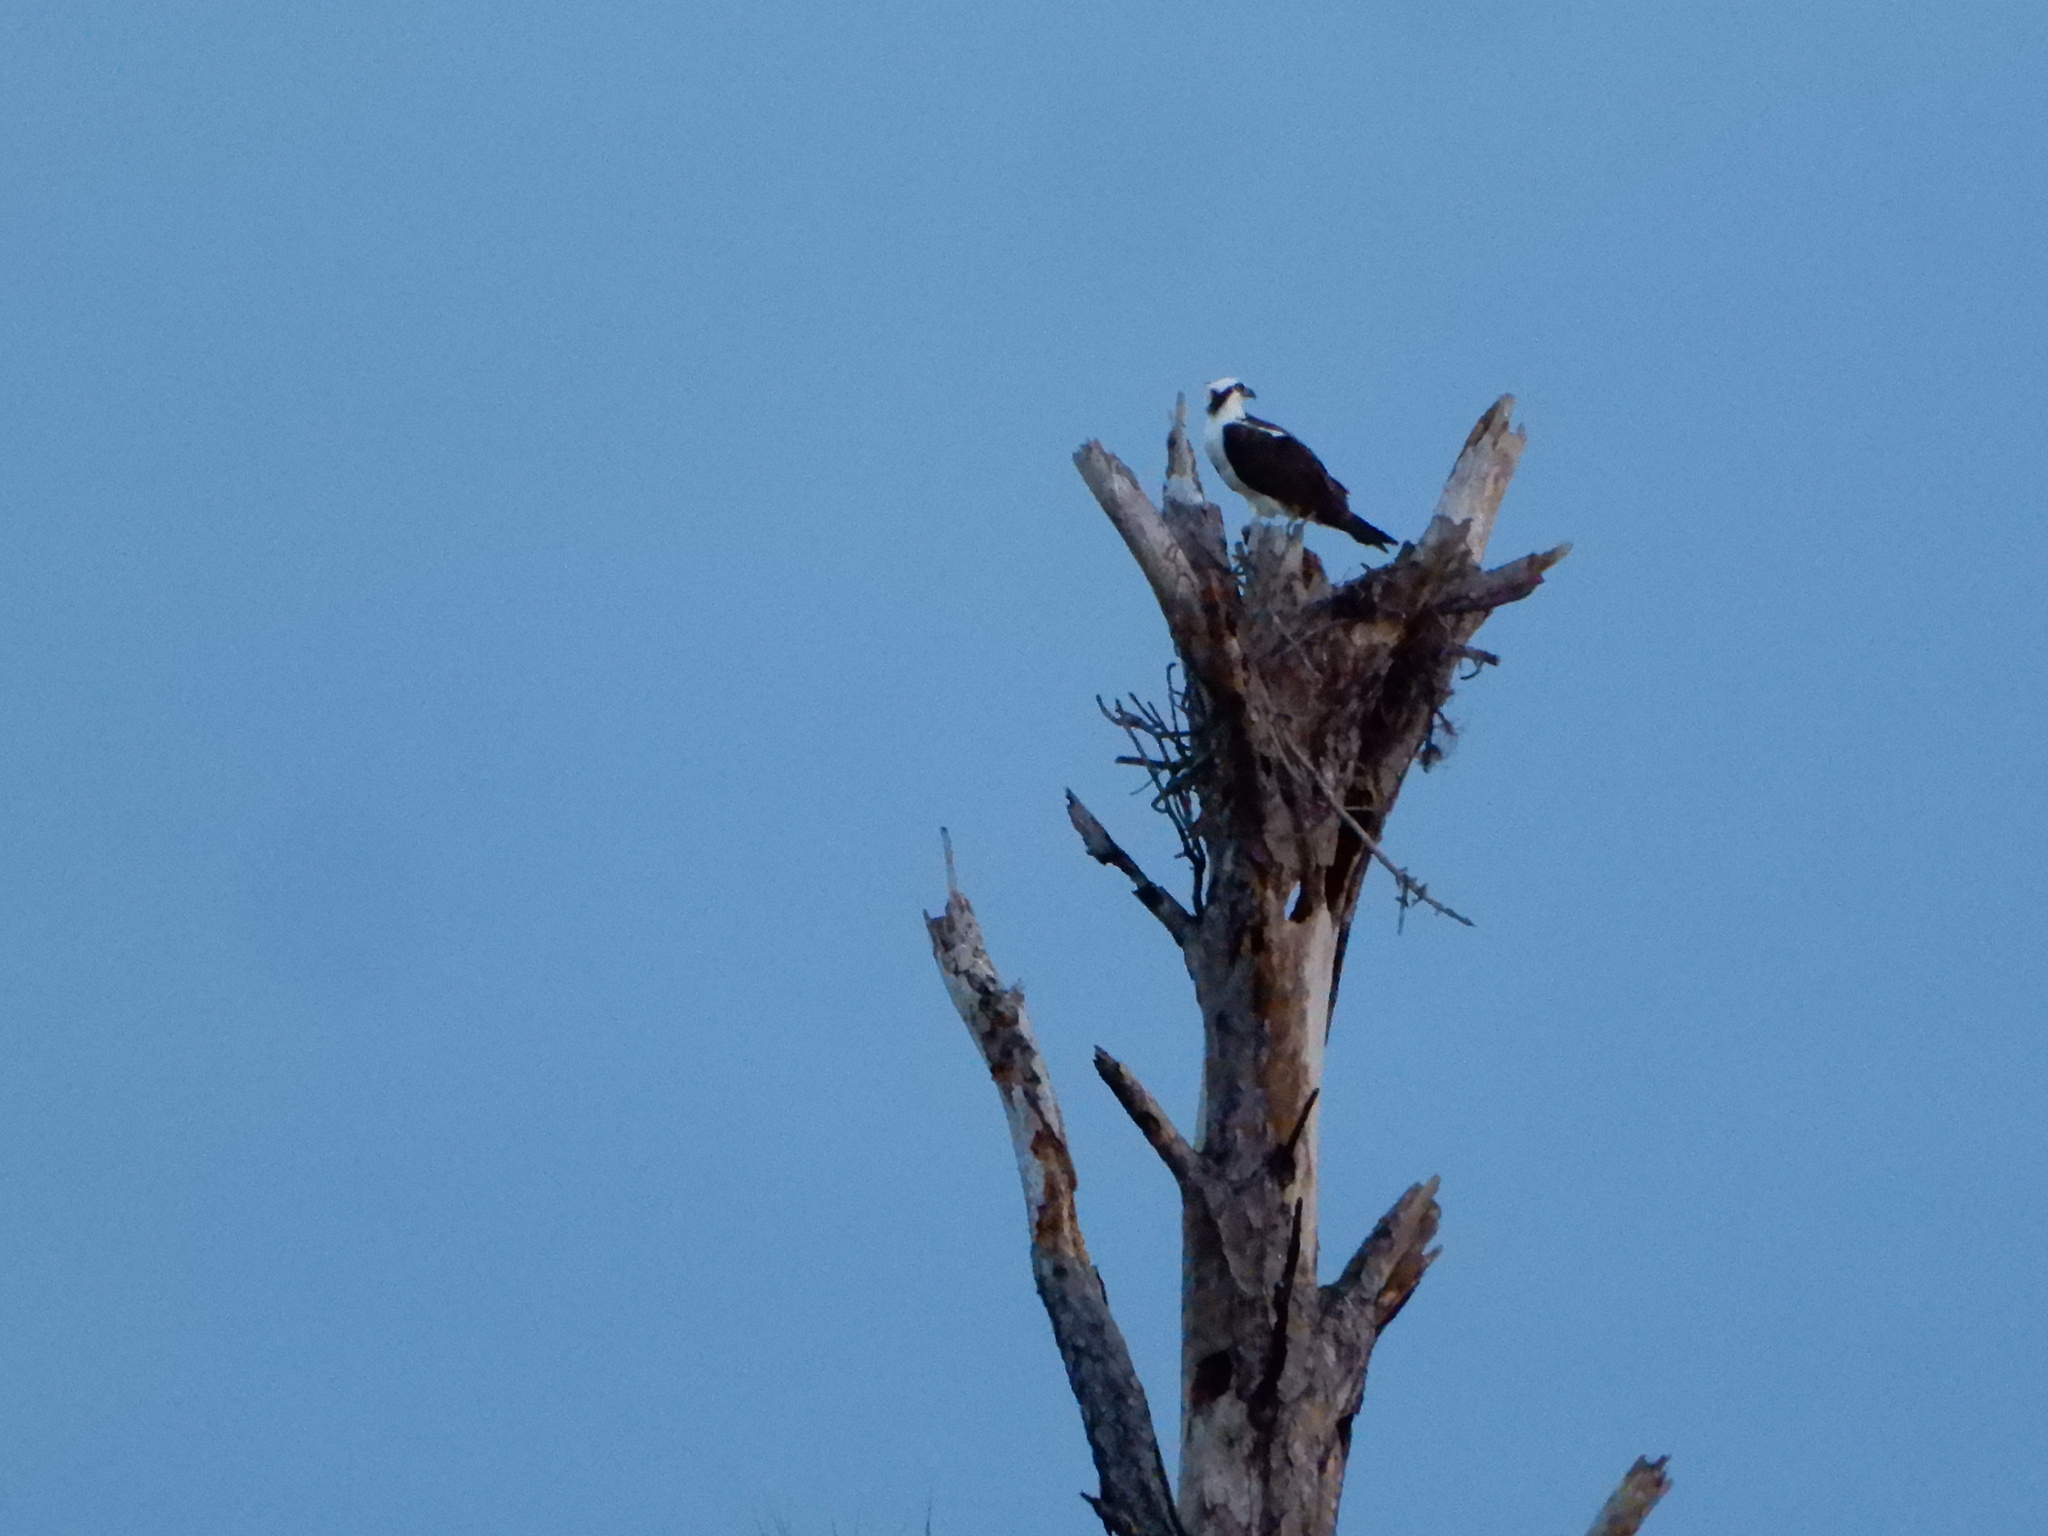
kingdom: Animalia
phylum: Chordata
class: Aves
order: Accipitriformes
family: Pandionidae
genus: Pandion
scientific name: Pandion haliaetus
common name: Osprey
